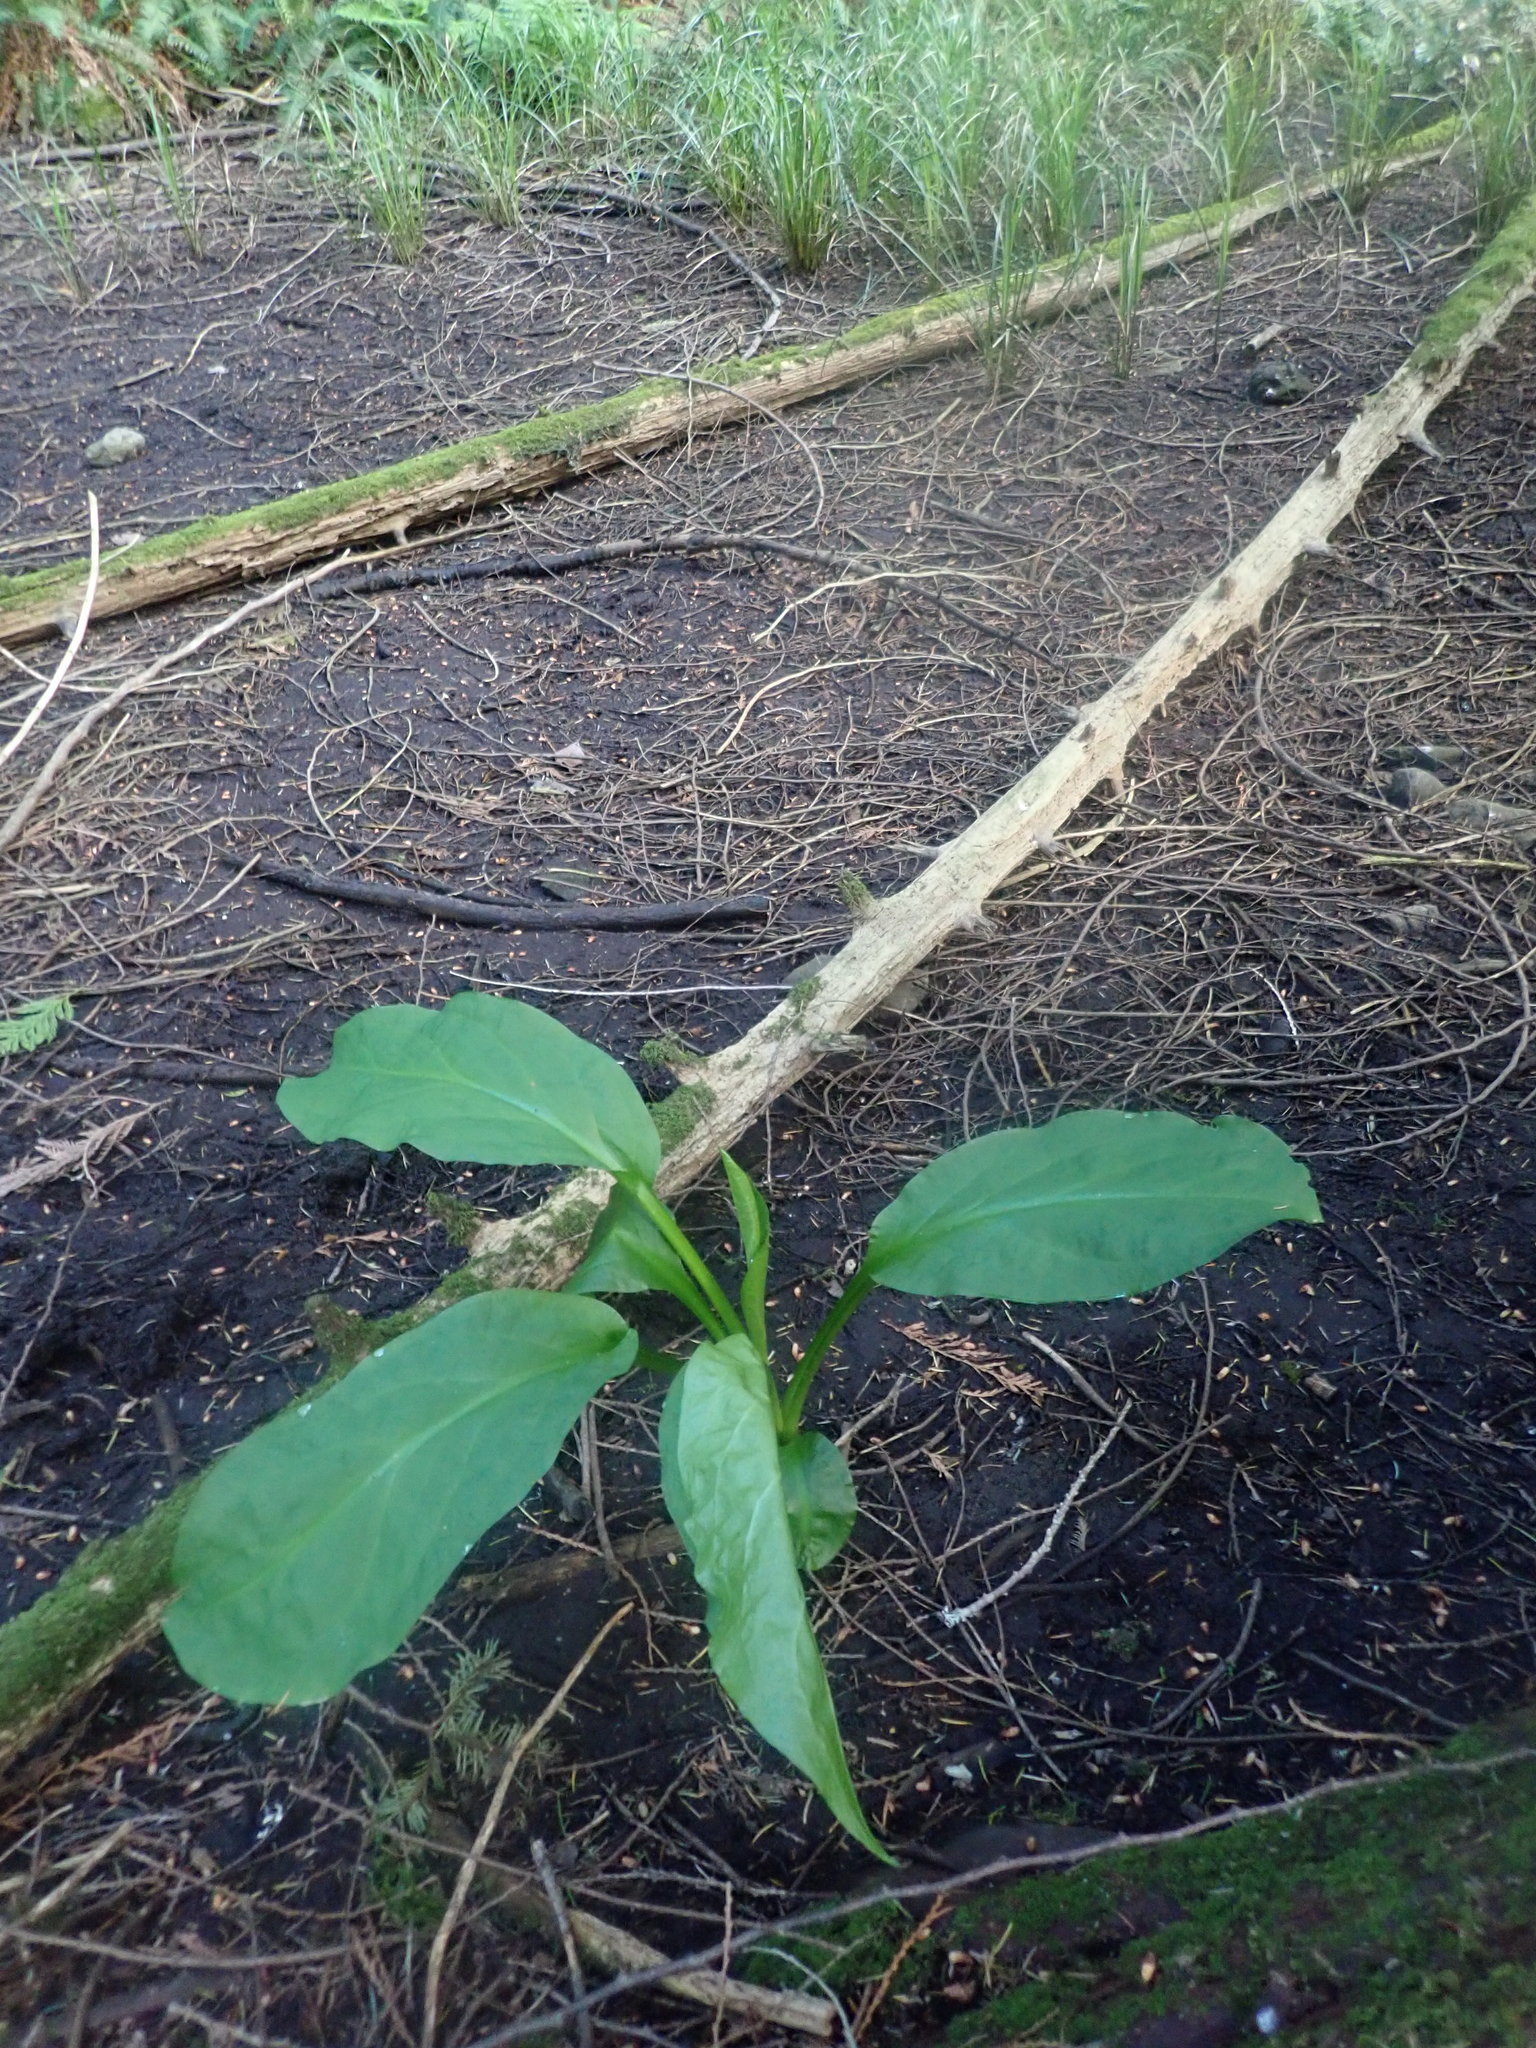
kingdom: Plantae
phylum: Tracheophyta
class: Liliopsida
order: Alismatales
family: Araceae
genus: Lysichiton
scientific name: Lysichiton americanus
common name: American skunk cabbage
